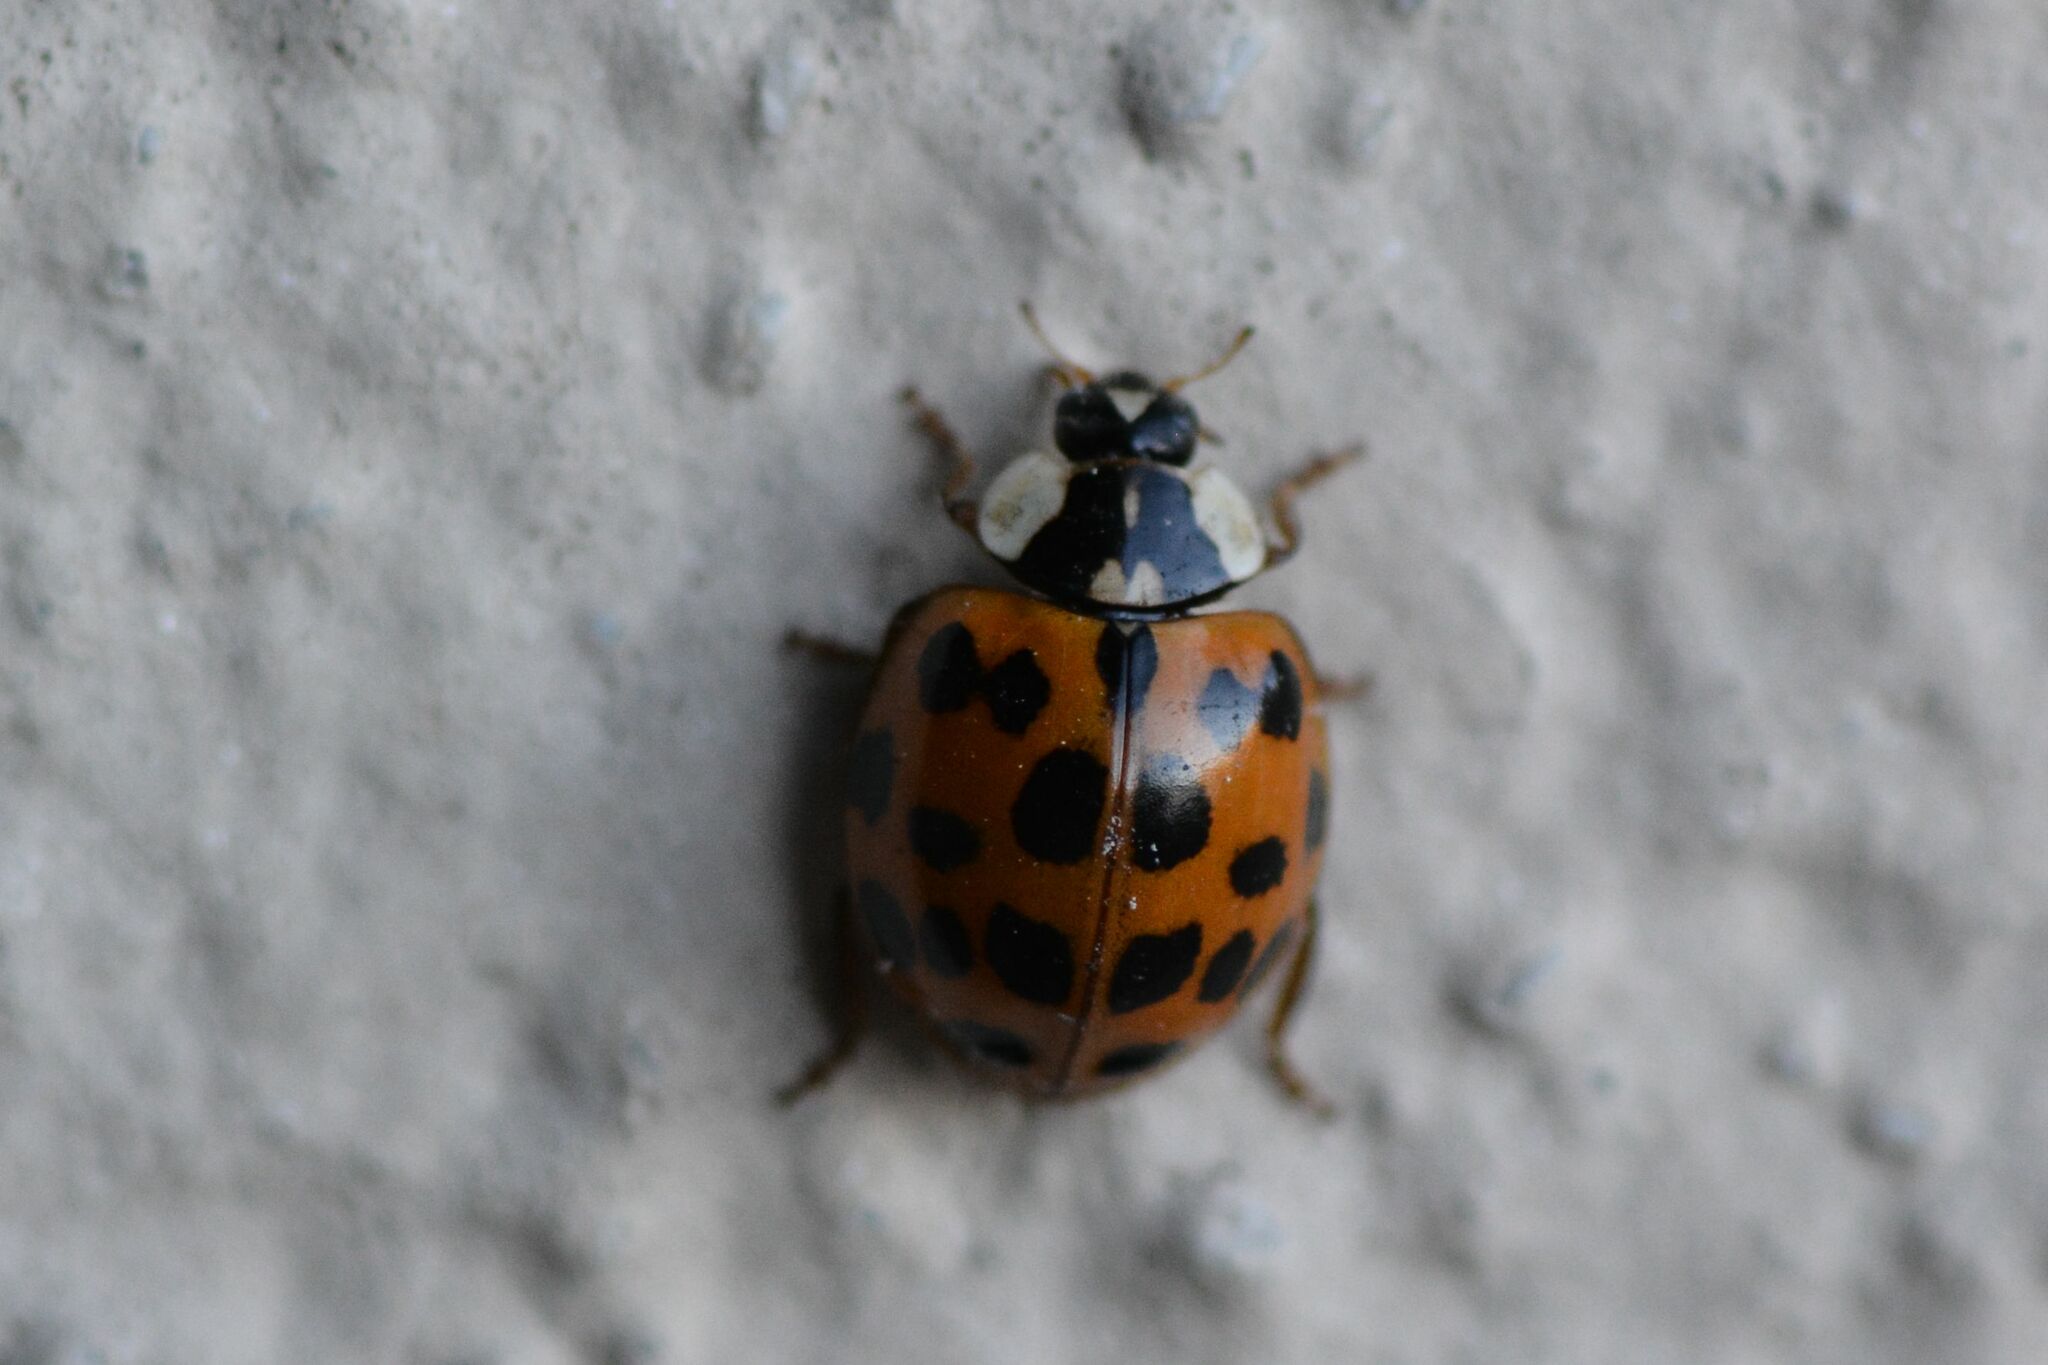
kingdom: Animalia
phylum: Arthropoda
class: Insecta
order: Coleoptera
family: Coccinellidae
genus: Harmonia
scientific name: Harmonia axyridis
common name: Harlequin ladybird
